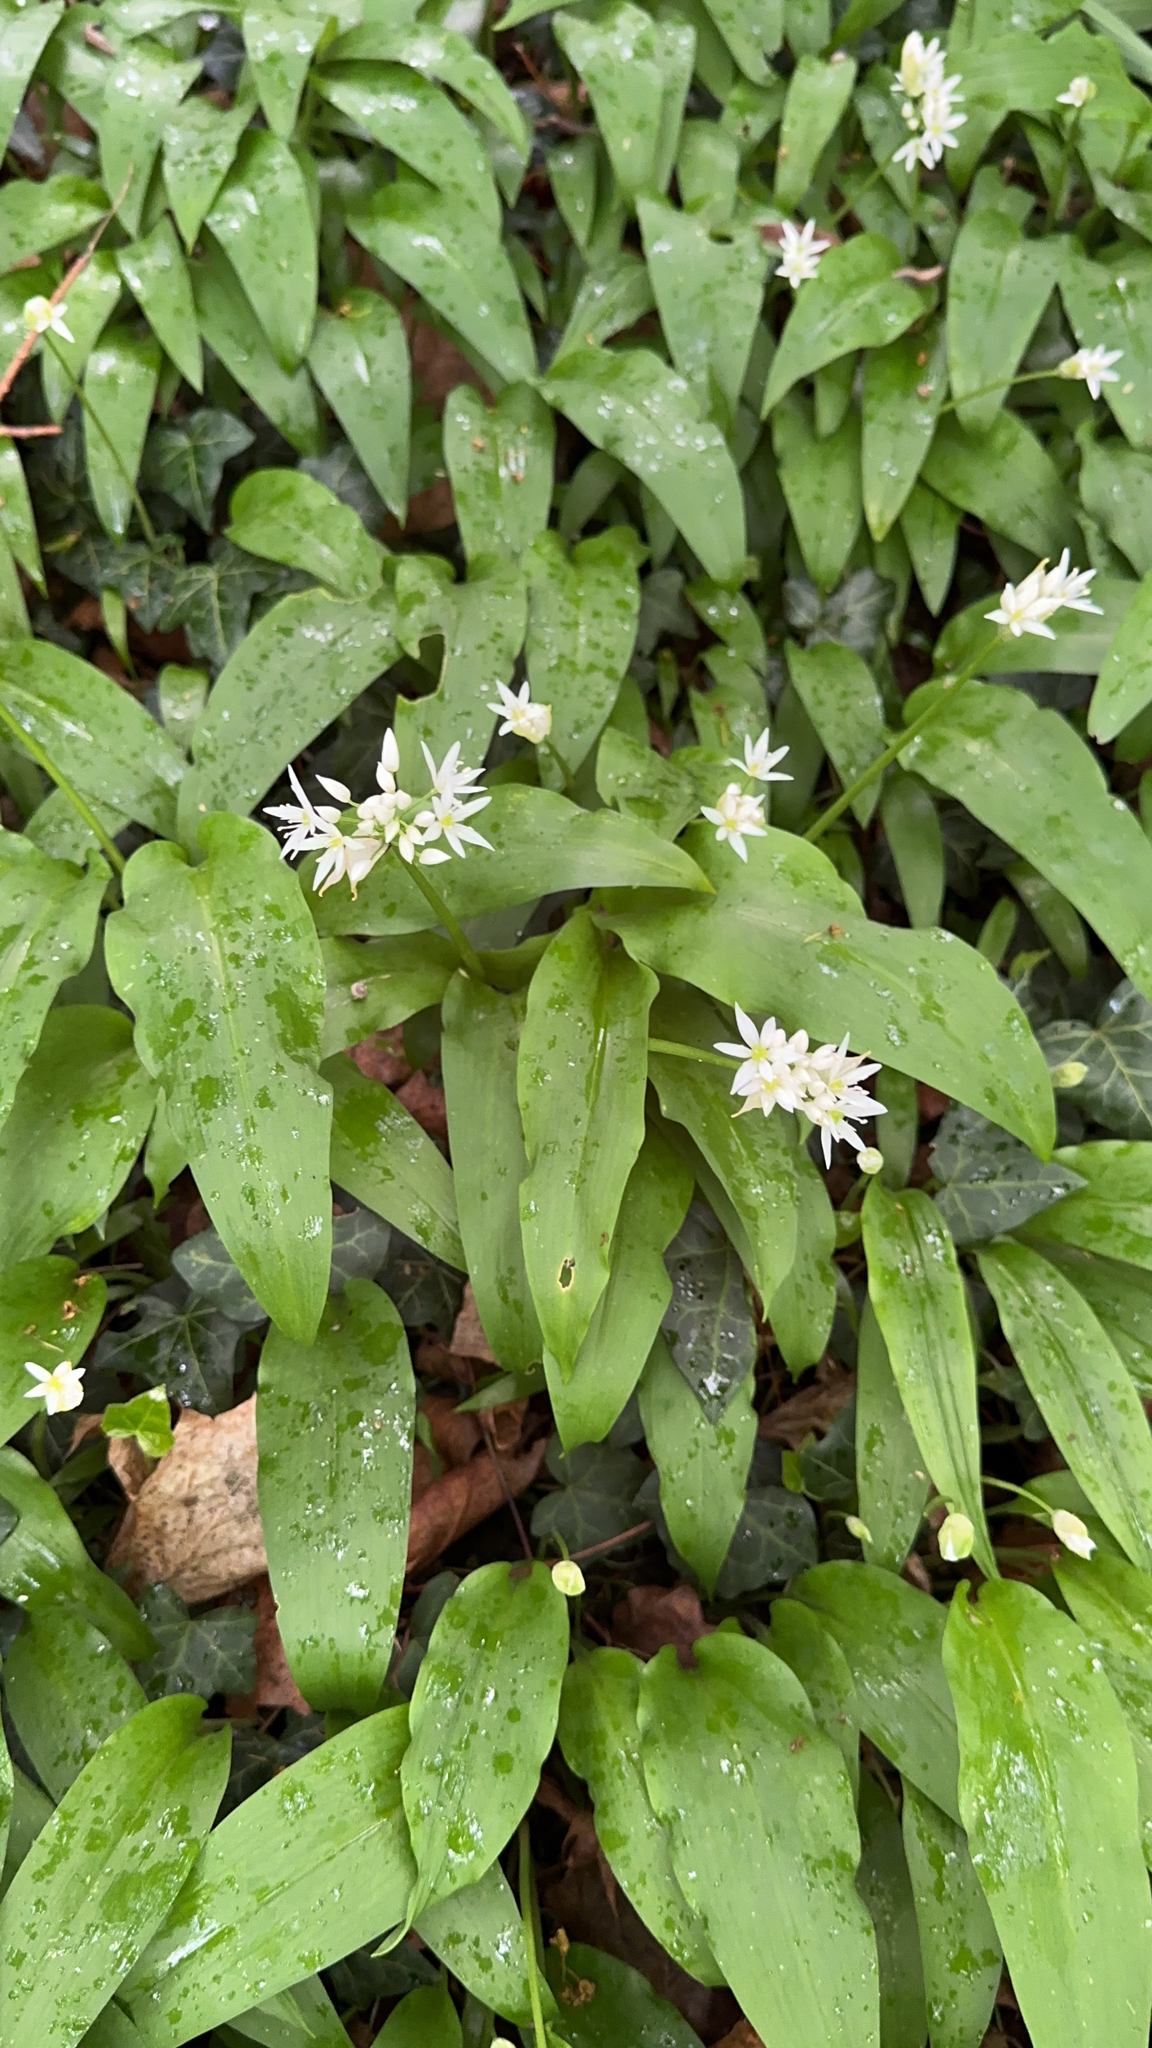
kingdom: Plantae
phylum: Tracheophyta
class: Liliopsida
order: Asparagales
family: Amaryllidaceae
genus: Allium
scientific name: Allium ursinum
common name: Ramsons
